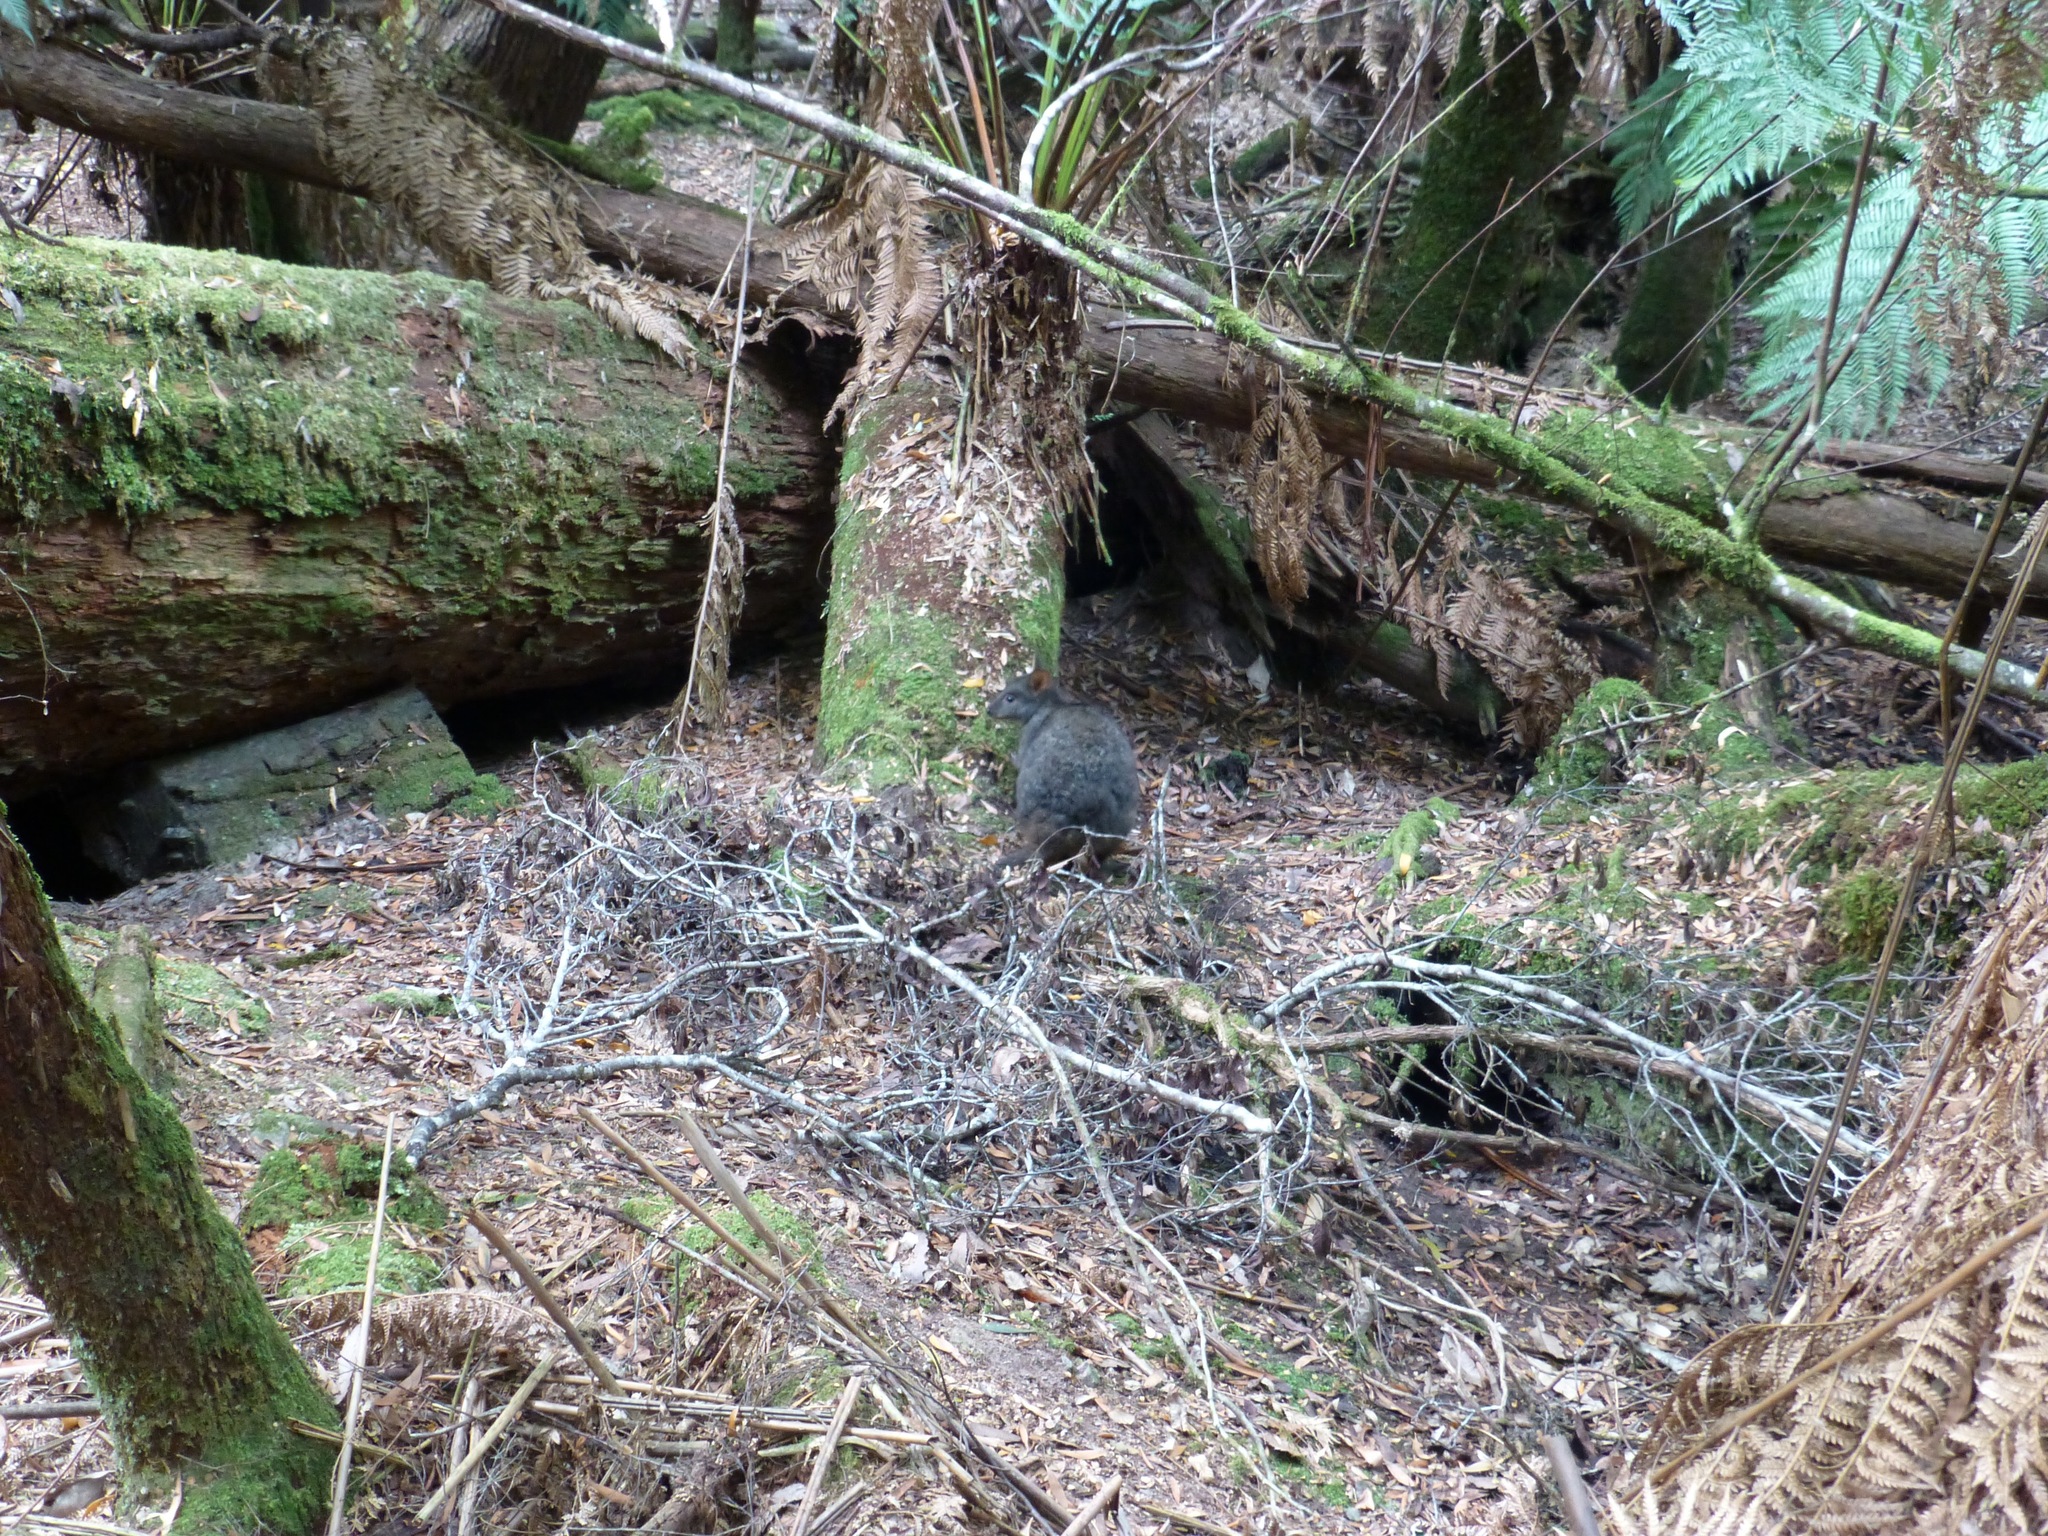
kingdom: Animalia
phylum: Chordata
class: Mammalia
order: Diprotodontia
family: Macropodidae
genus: Thylogale
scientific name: Thylogale billardierii
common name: Tasmanian pademelon
